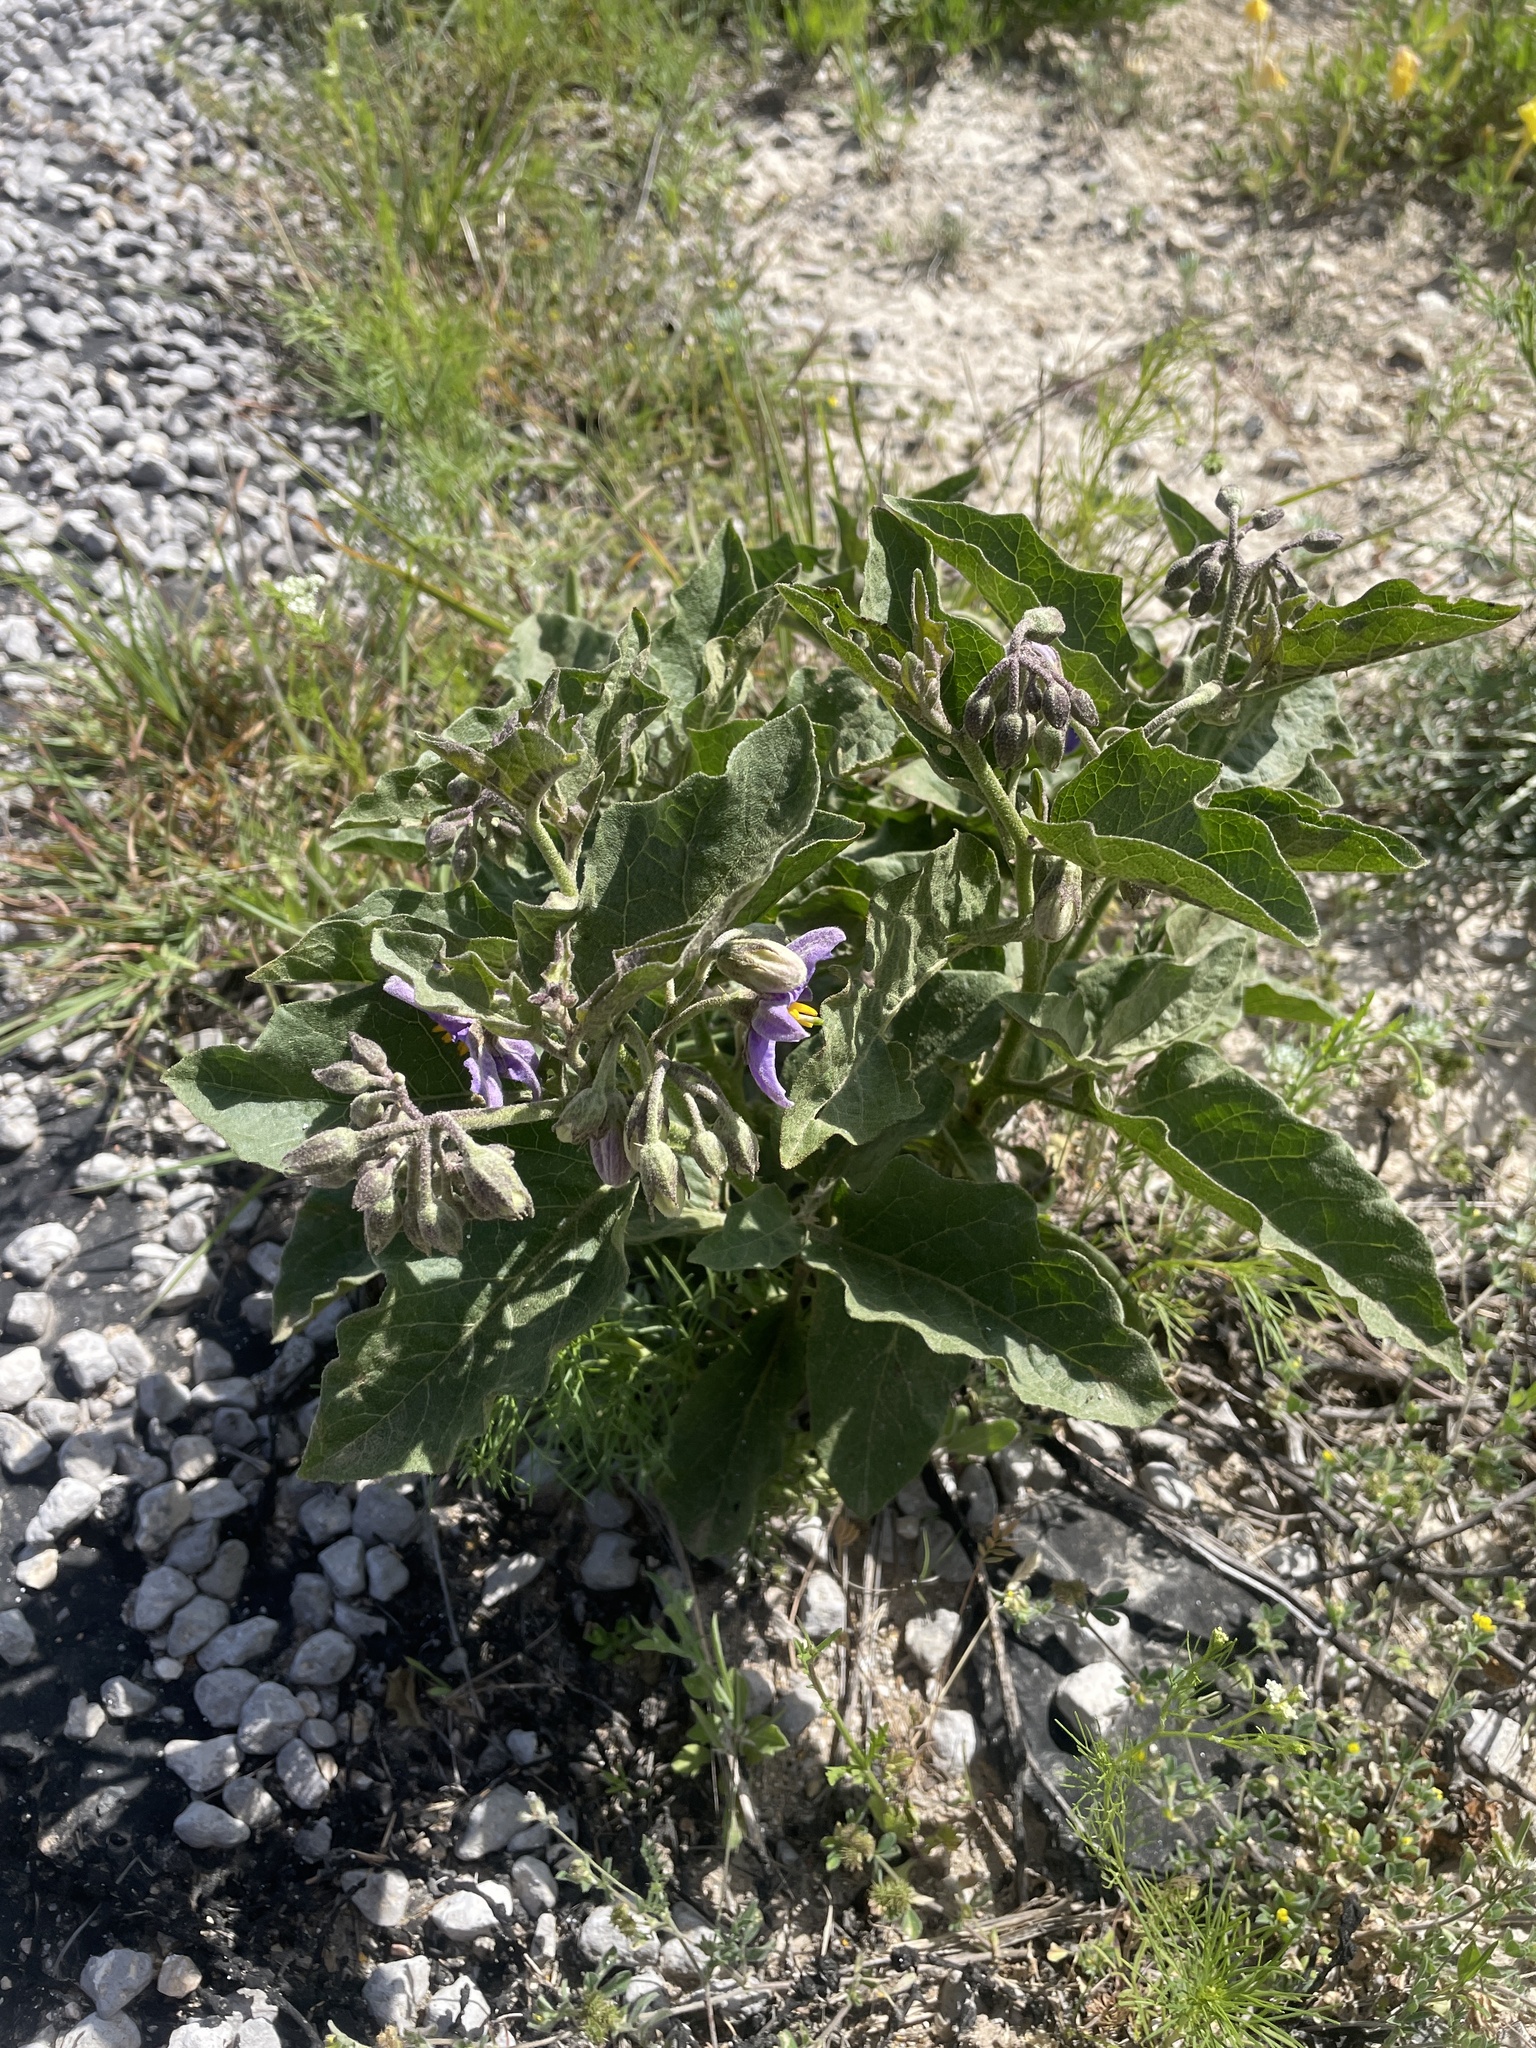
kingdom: Plantae
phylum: Tracheophyta
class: Magnoliopsida
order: Solanales
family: Solanaceae
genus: Solanum
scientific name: Solanum dimidiatum
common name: Carolina horse-nettle
